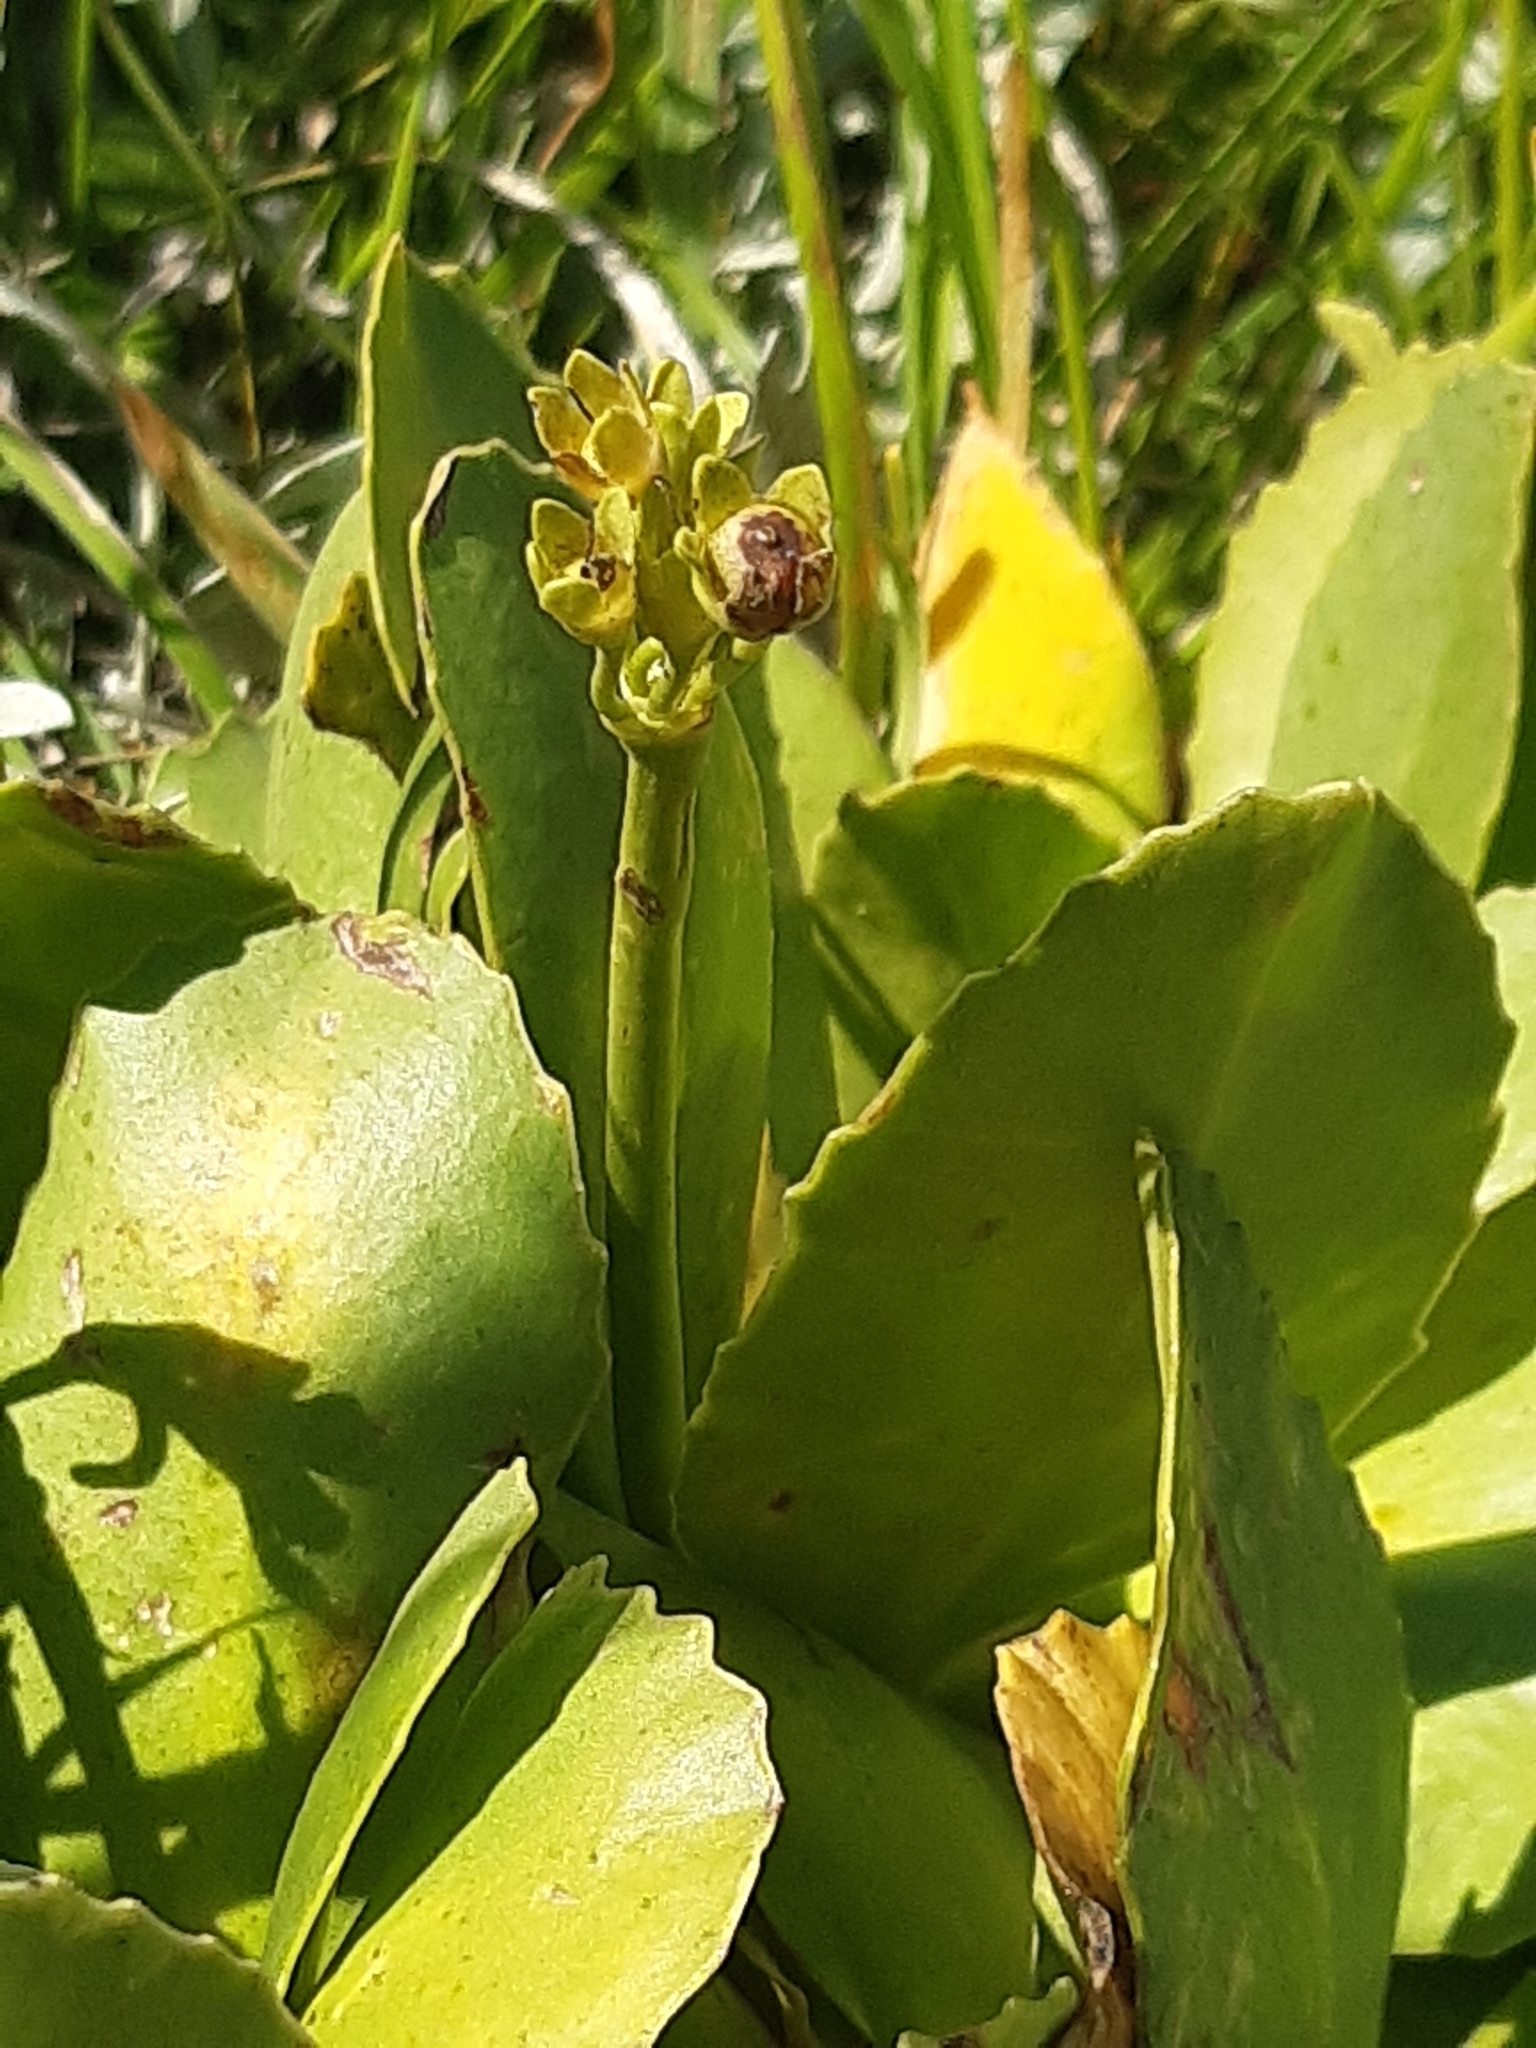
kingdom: Plantae
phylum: Tracheophyta
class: Magnoliopsida
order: Ericales
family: Primulaceae
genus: Primula
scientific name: Primula auricula
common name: Auricula
